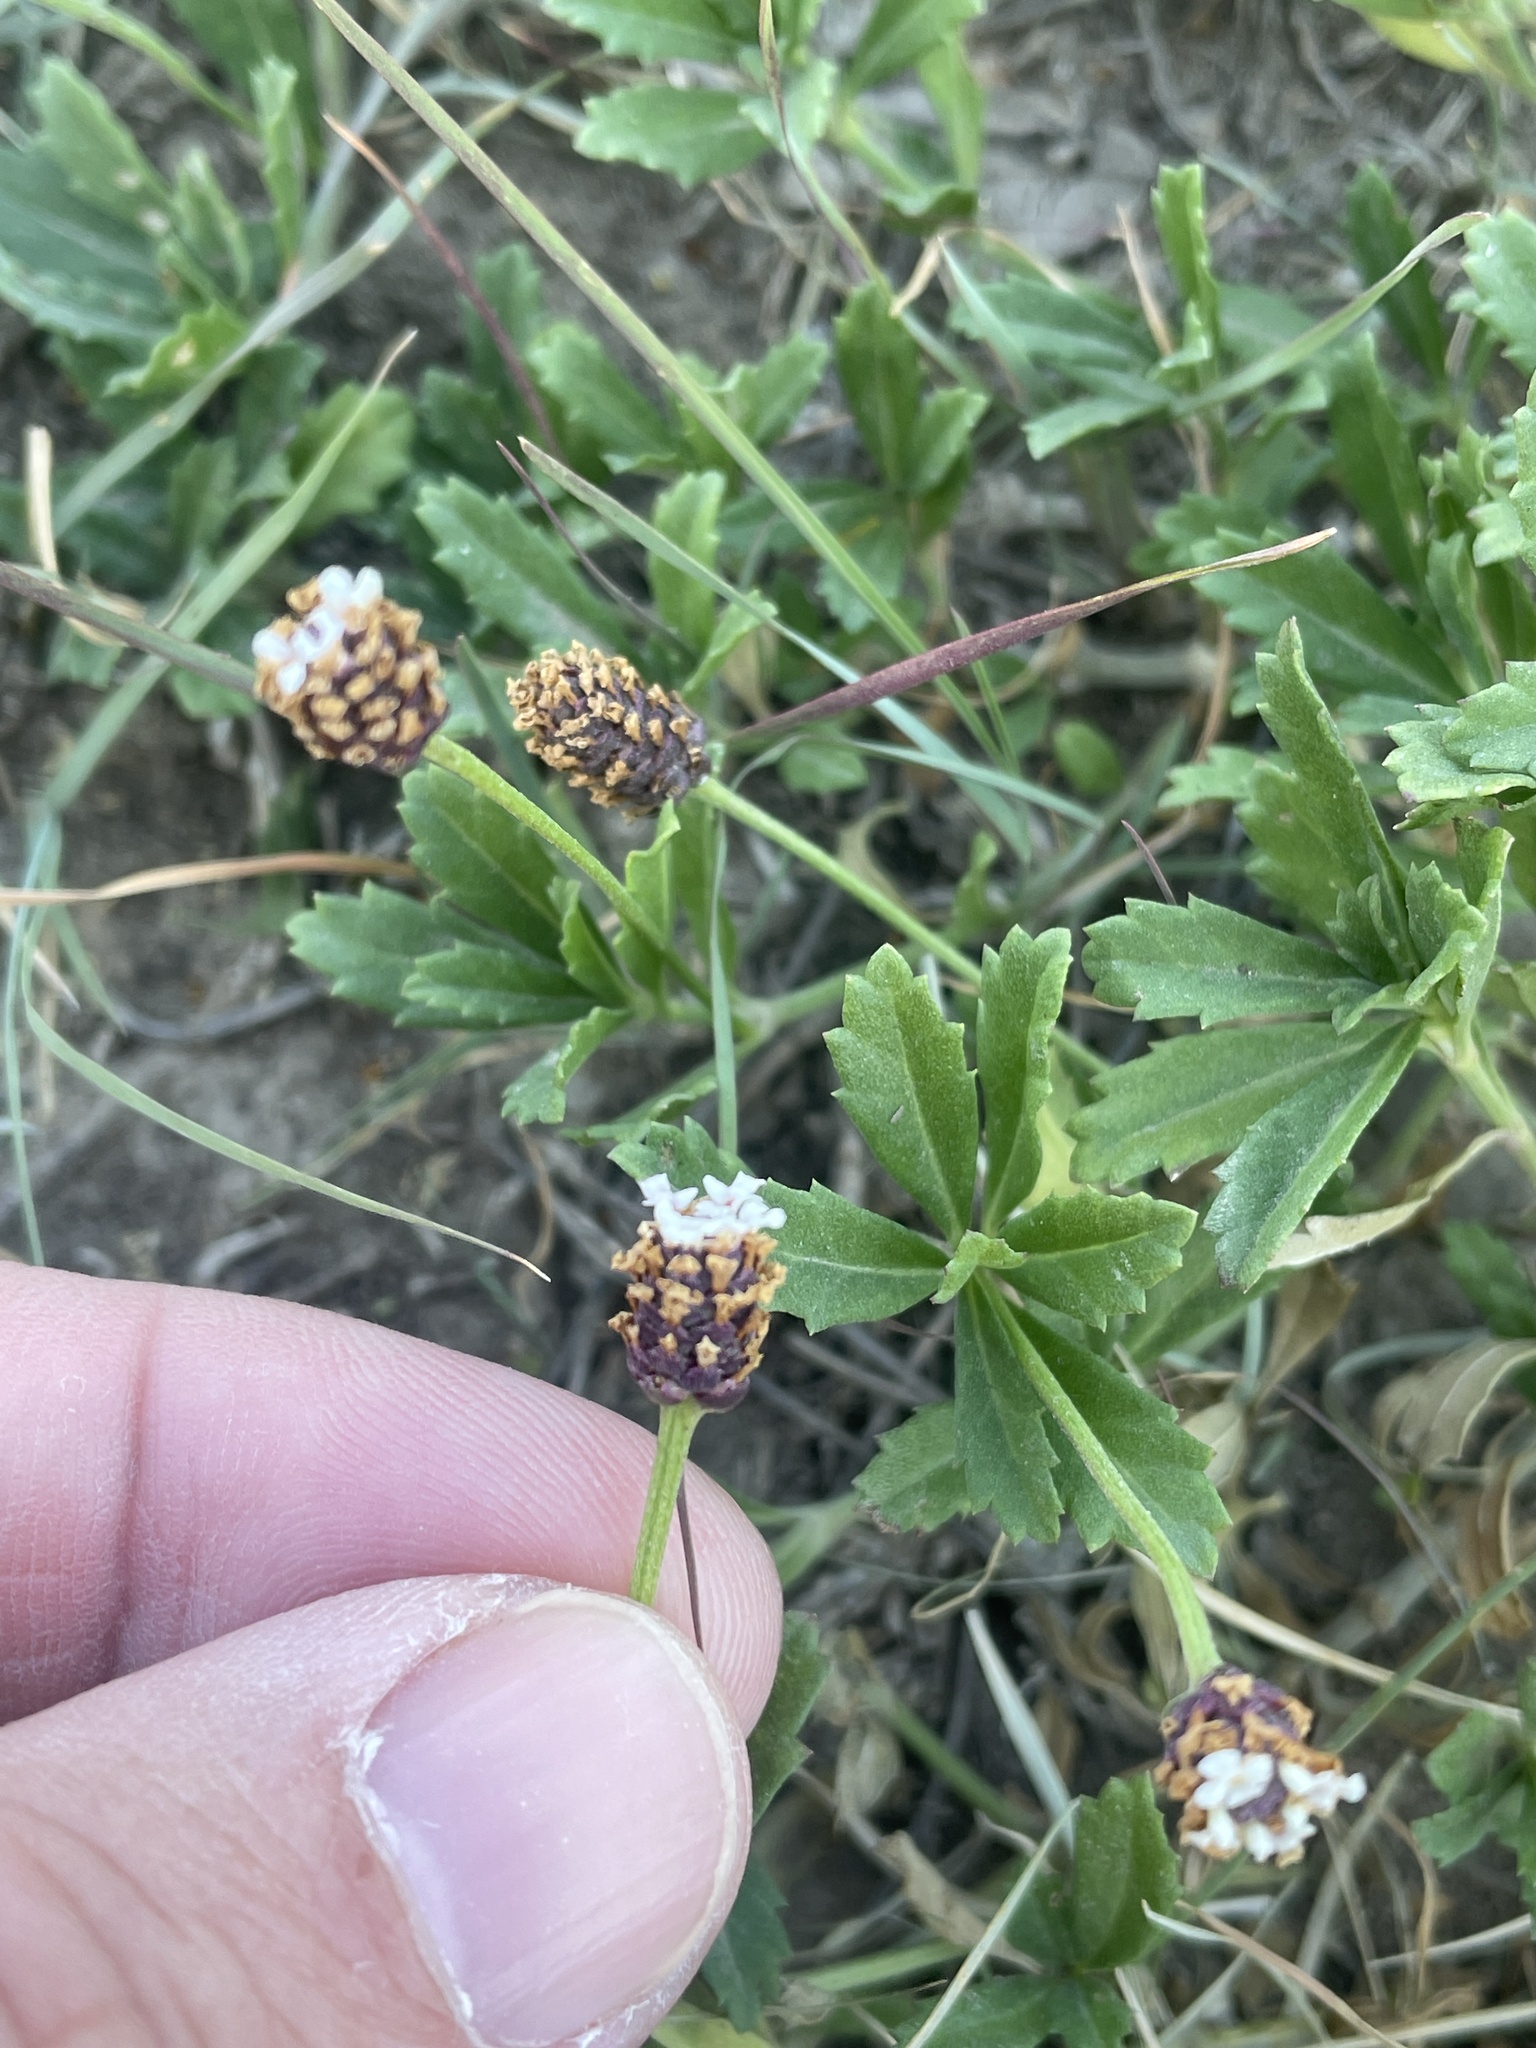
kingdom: Plantae
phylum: Tracheophyta
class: Magnoliopsida
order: Lamiales
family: Verbenaceae
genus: Phyla
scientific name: Phyla nodiflora
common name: Frogfruit
